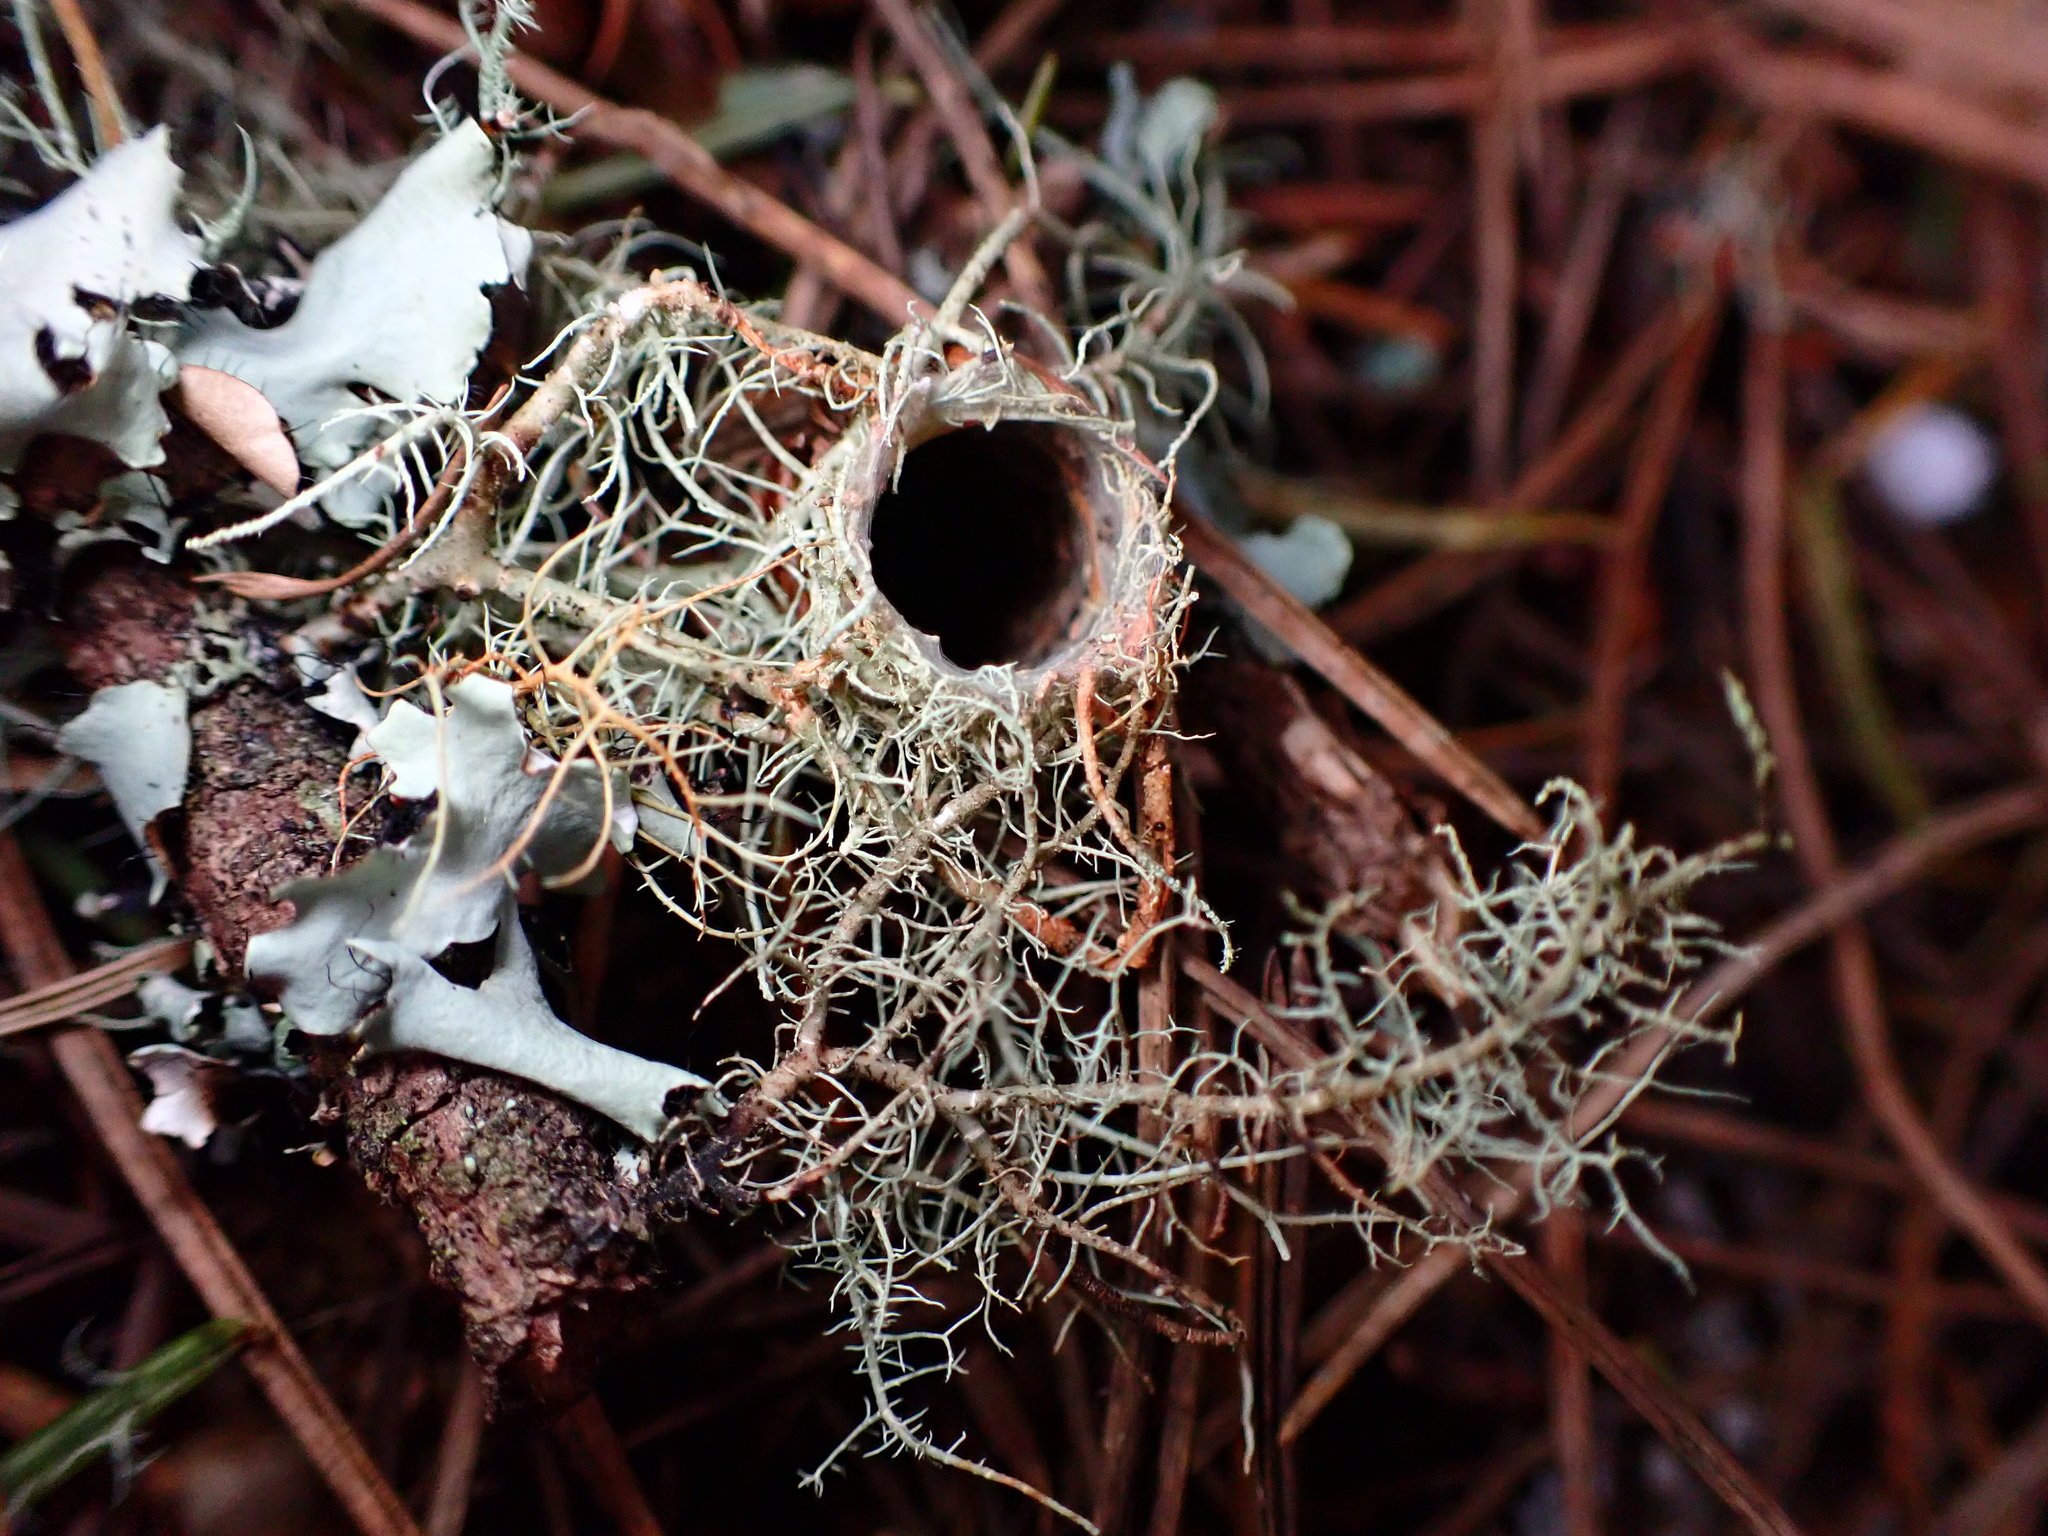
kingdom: Animalia
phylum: Arthropoda
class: Arachnida
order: Araneae
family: Antrodiaetidae
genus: Atypoides
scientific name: Atypoides riversi
